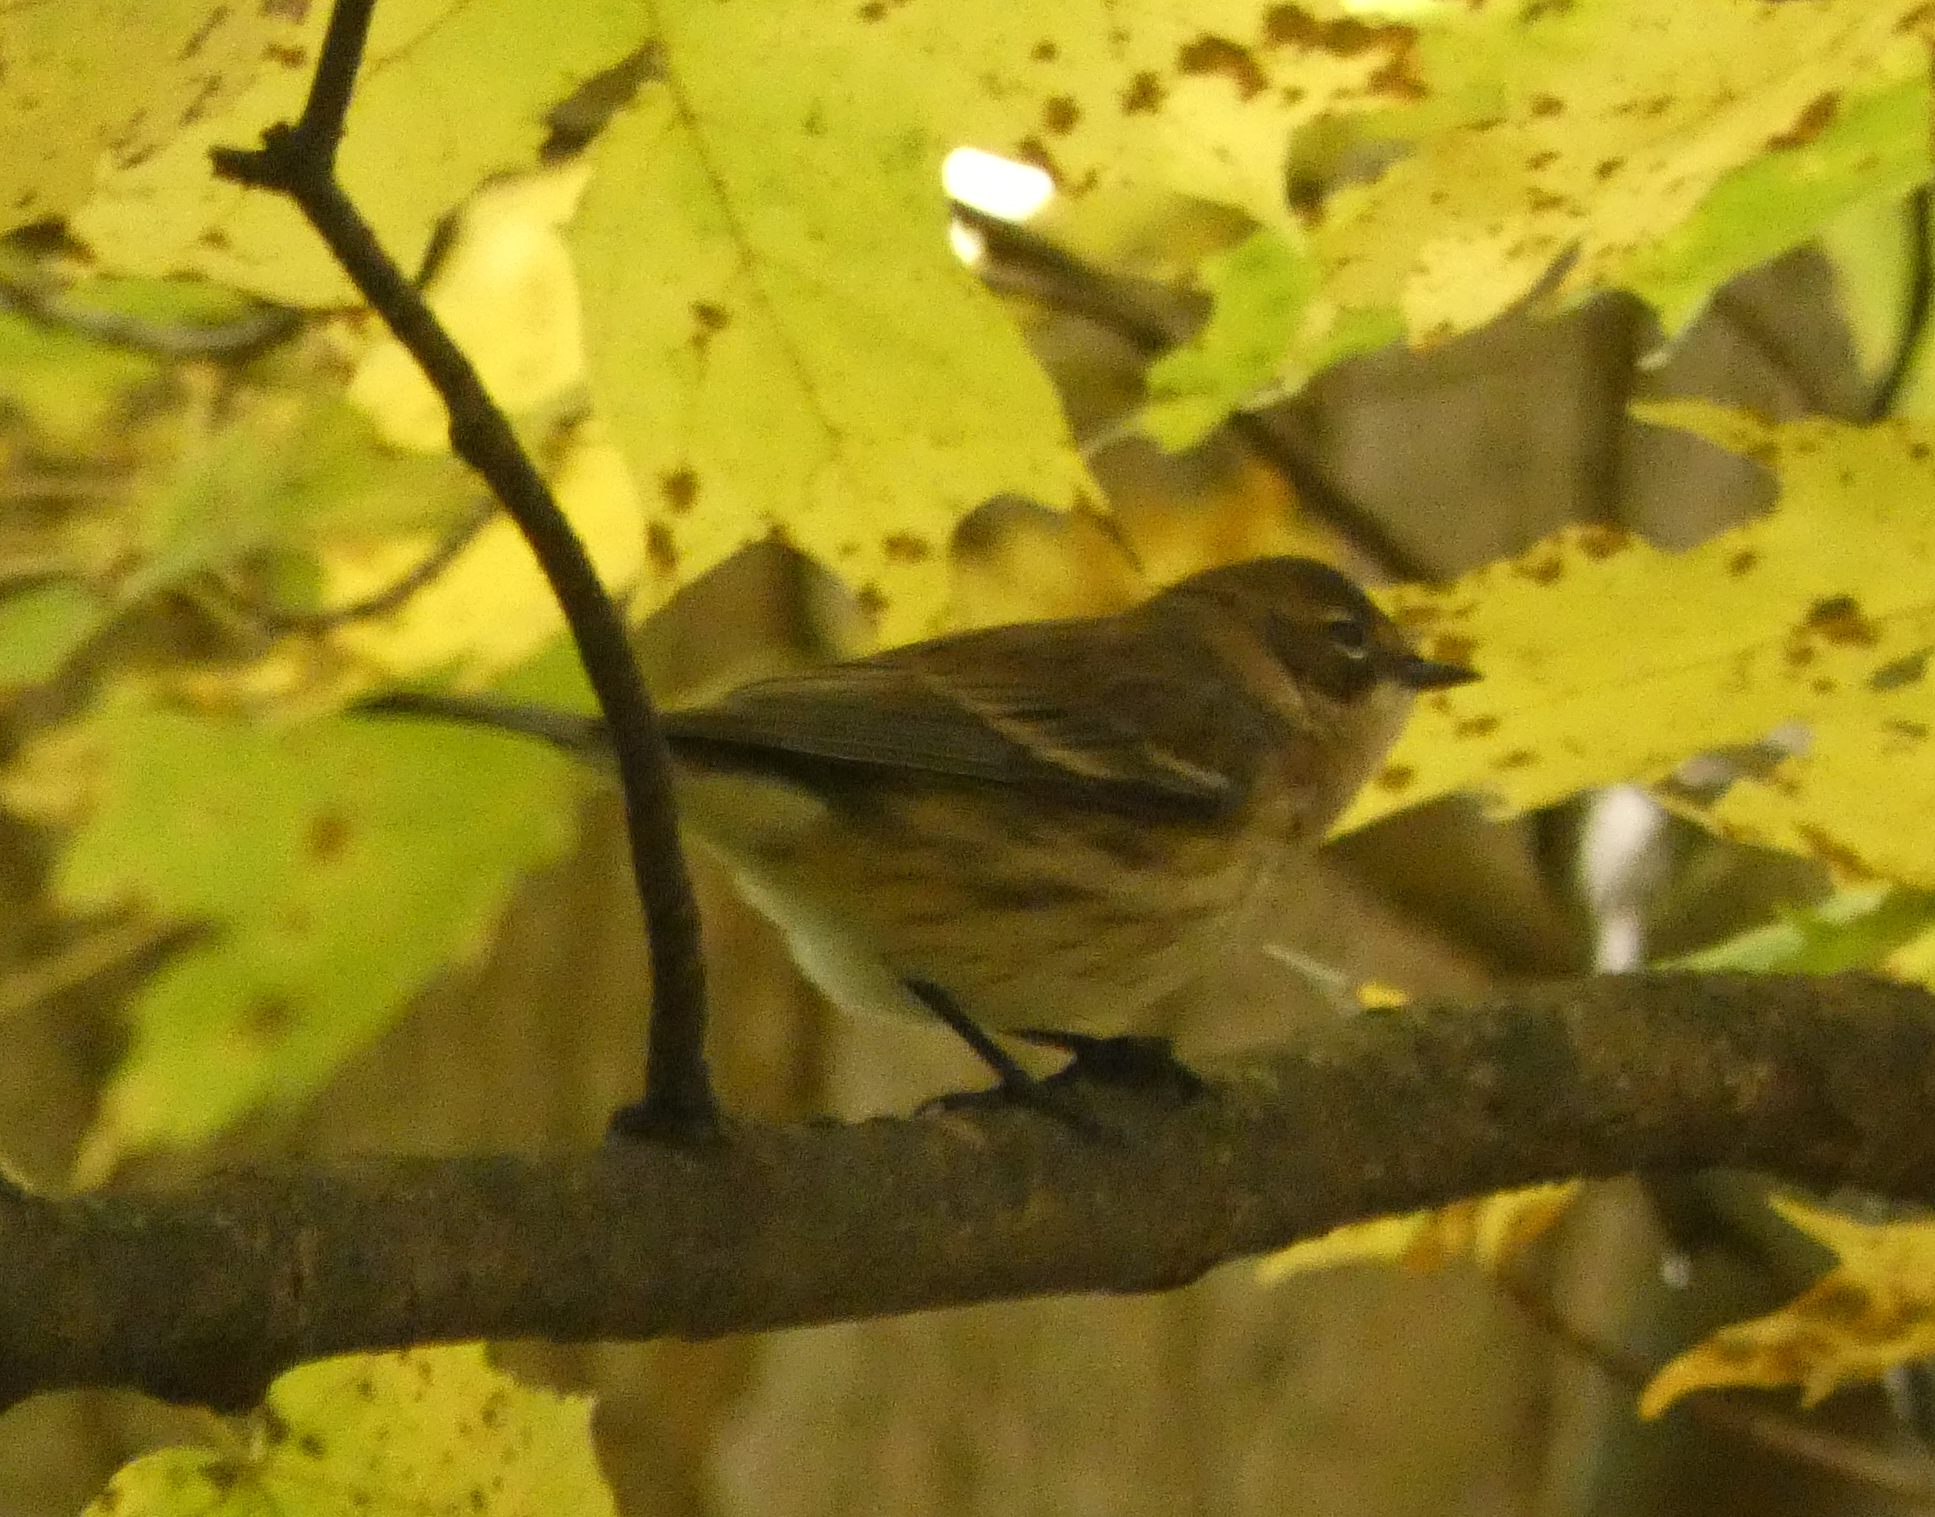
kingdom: Animalia
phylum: Chordata
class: Aves
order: Passeriformes
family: Parulidae
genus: Setophaga
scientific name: Setophaga coronata
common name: Myrtle warbler
